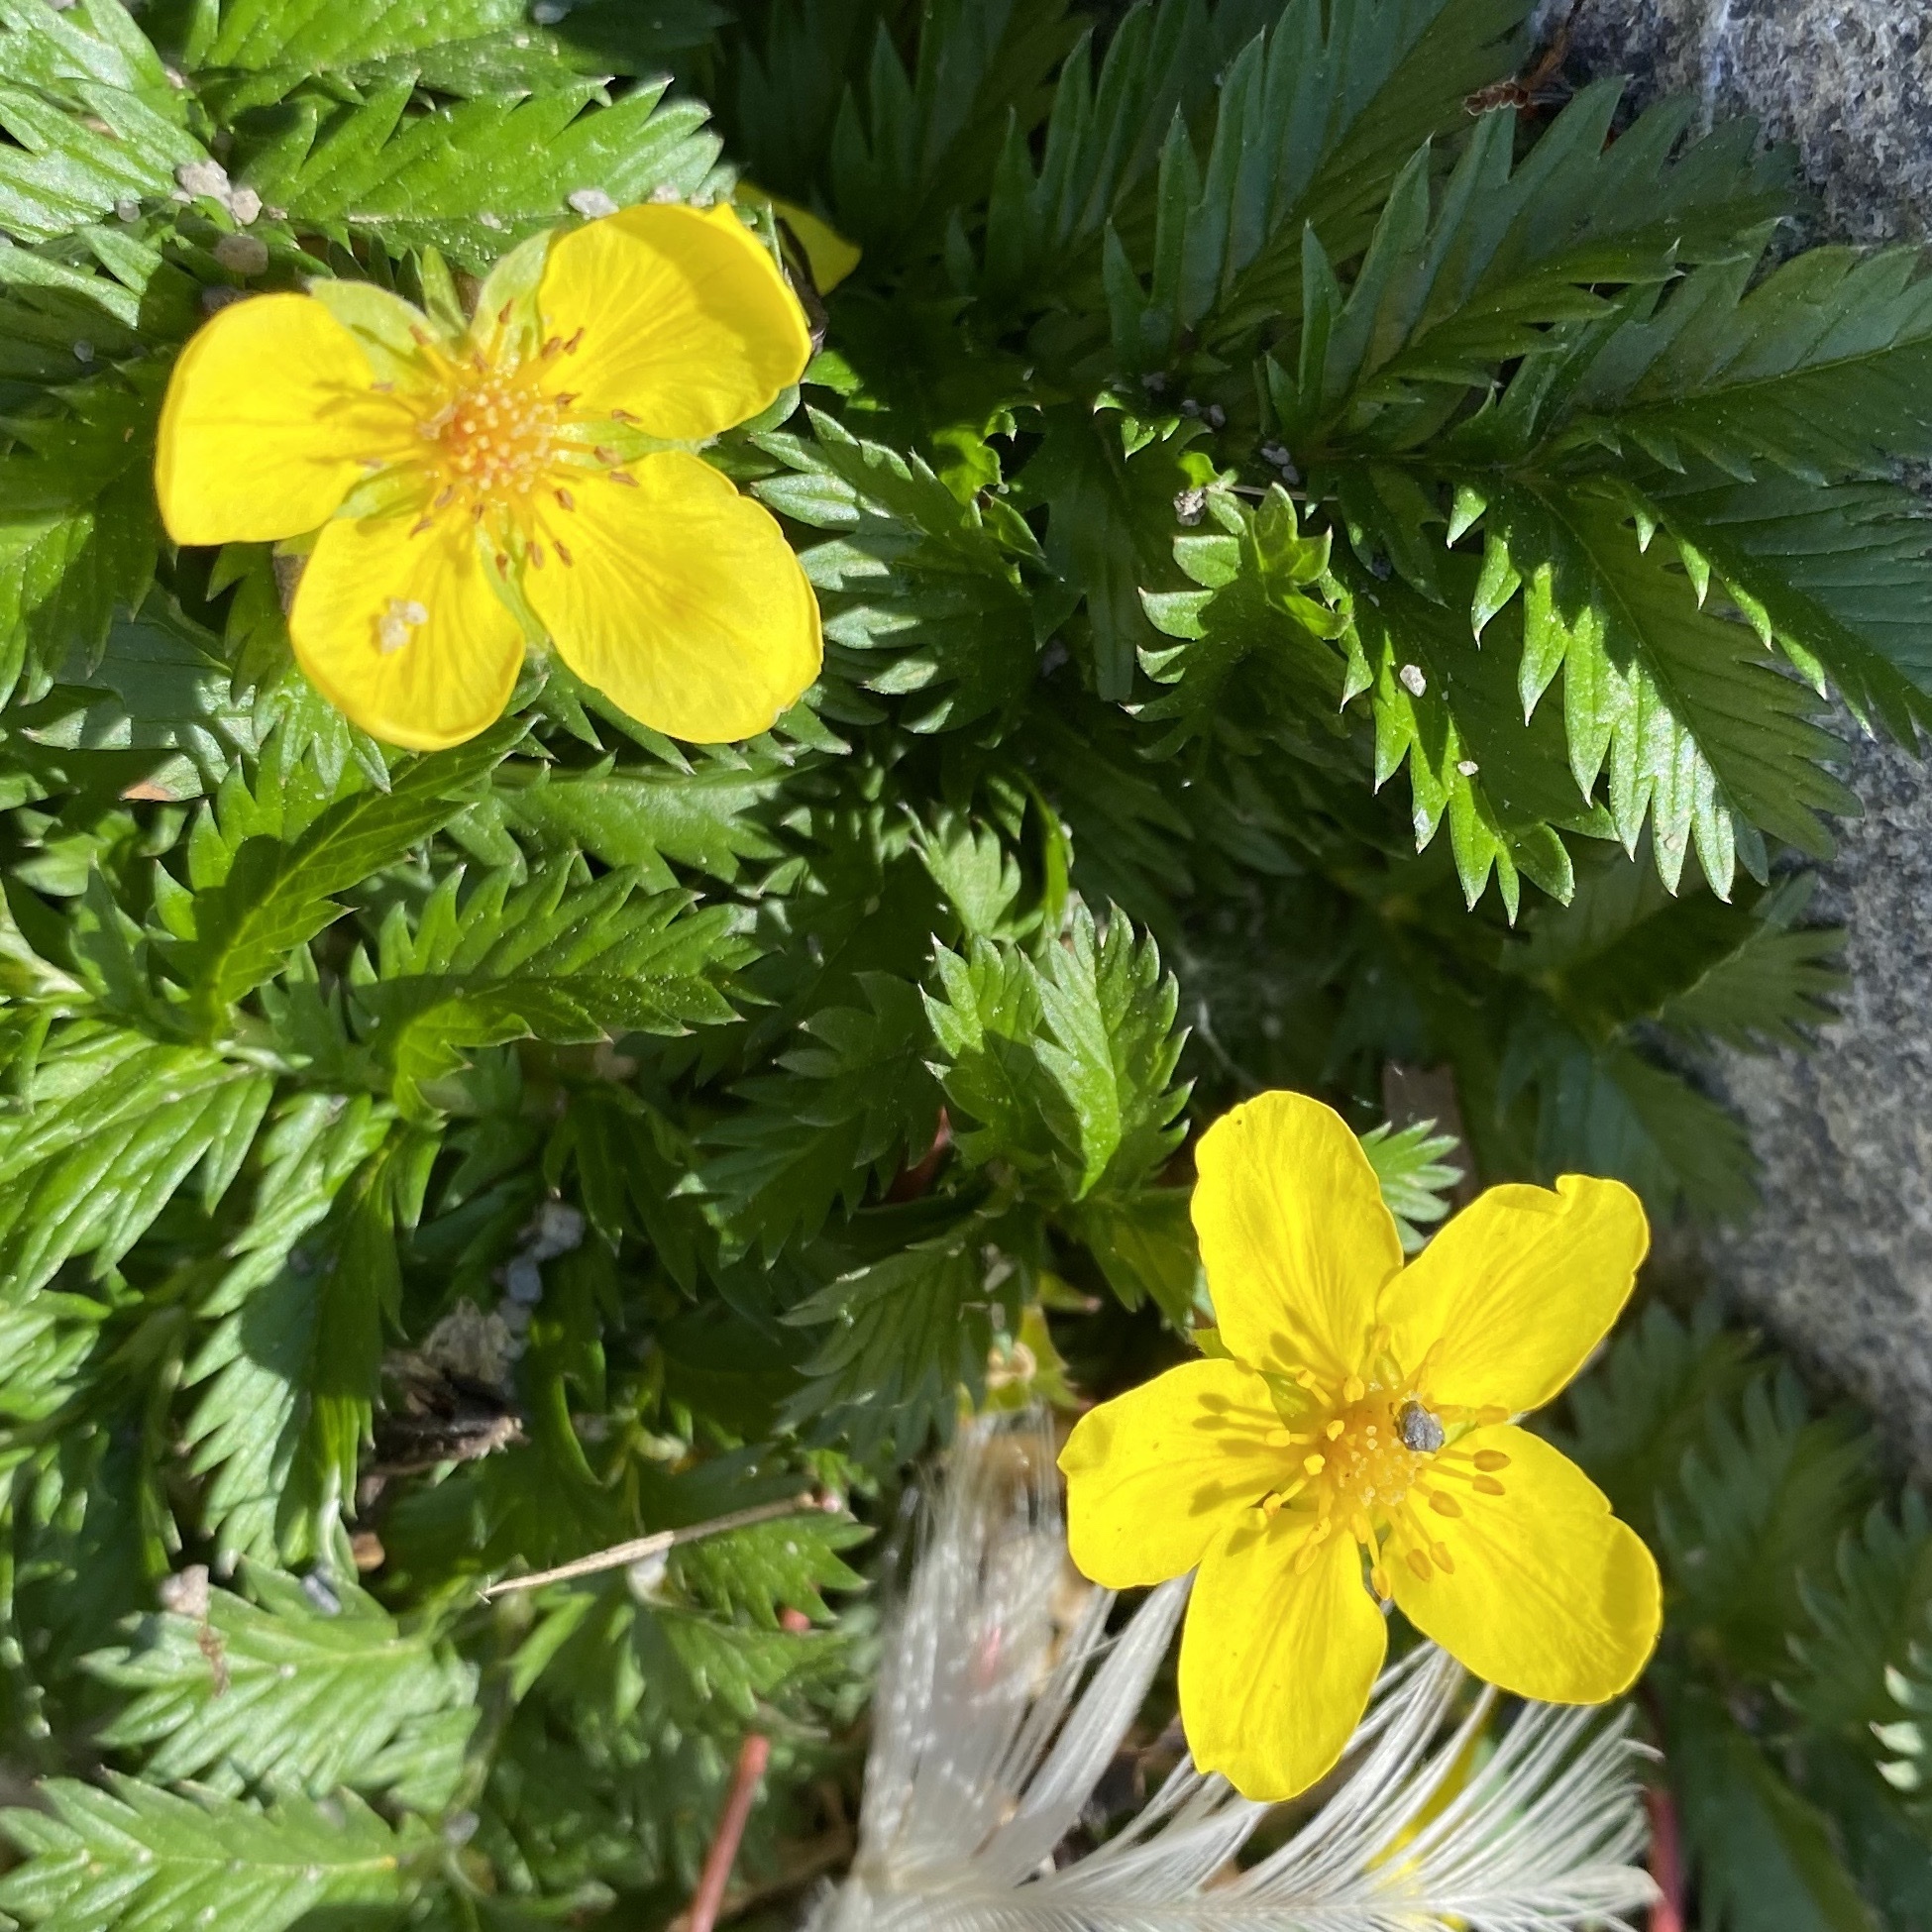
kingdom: Plantae
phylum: Tracheophyta
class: Magnoliopsida
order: Rosales
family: Rosaceae
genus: Argentina
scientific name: Argentina anserina
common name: Common silverweed
